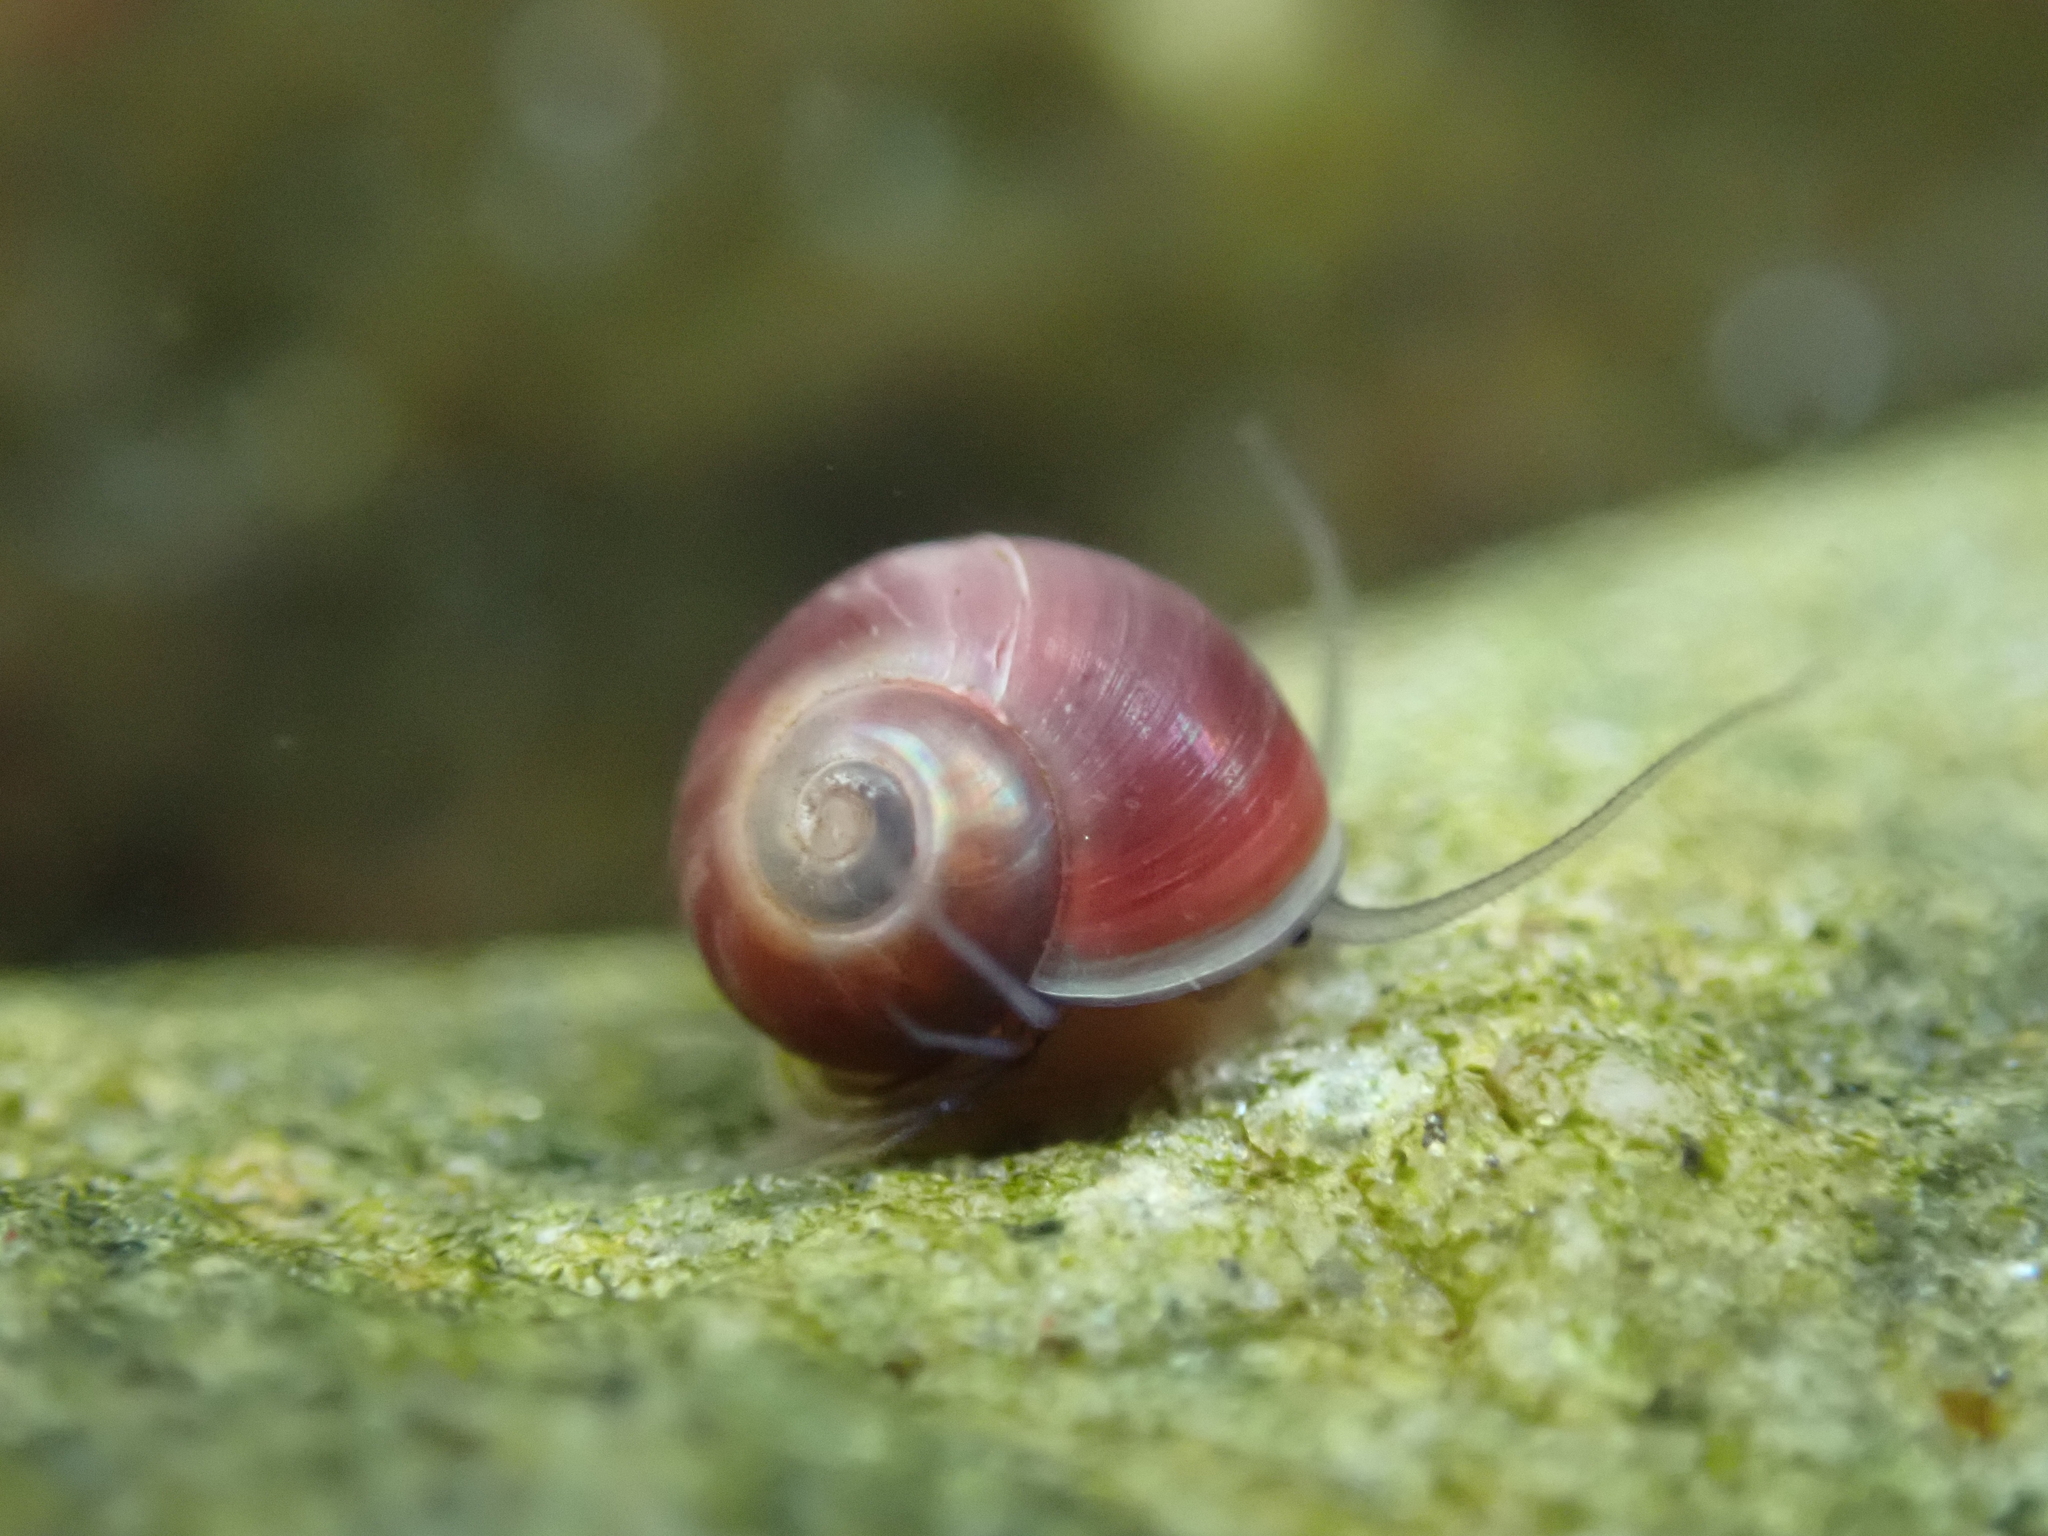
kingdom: Animalia
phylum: Mollusca
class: Gastropoda
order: Trochida
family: Margaritidae
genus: Margarites
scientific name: Margarites helicinus
